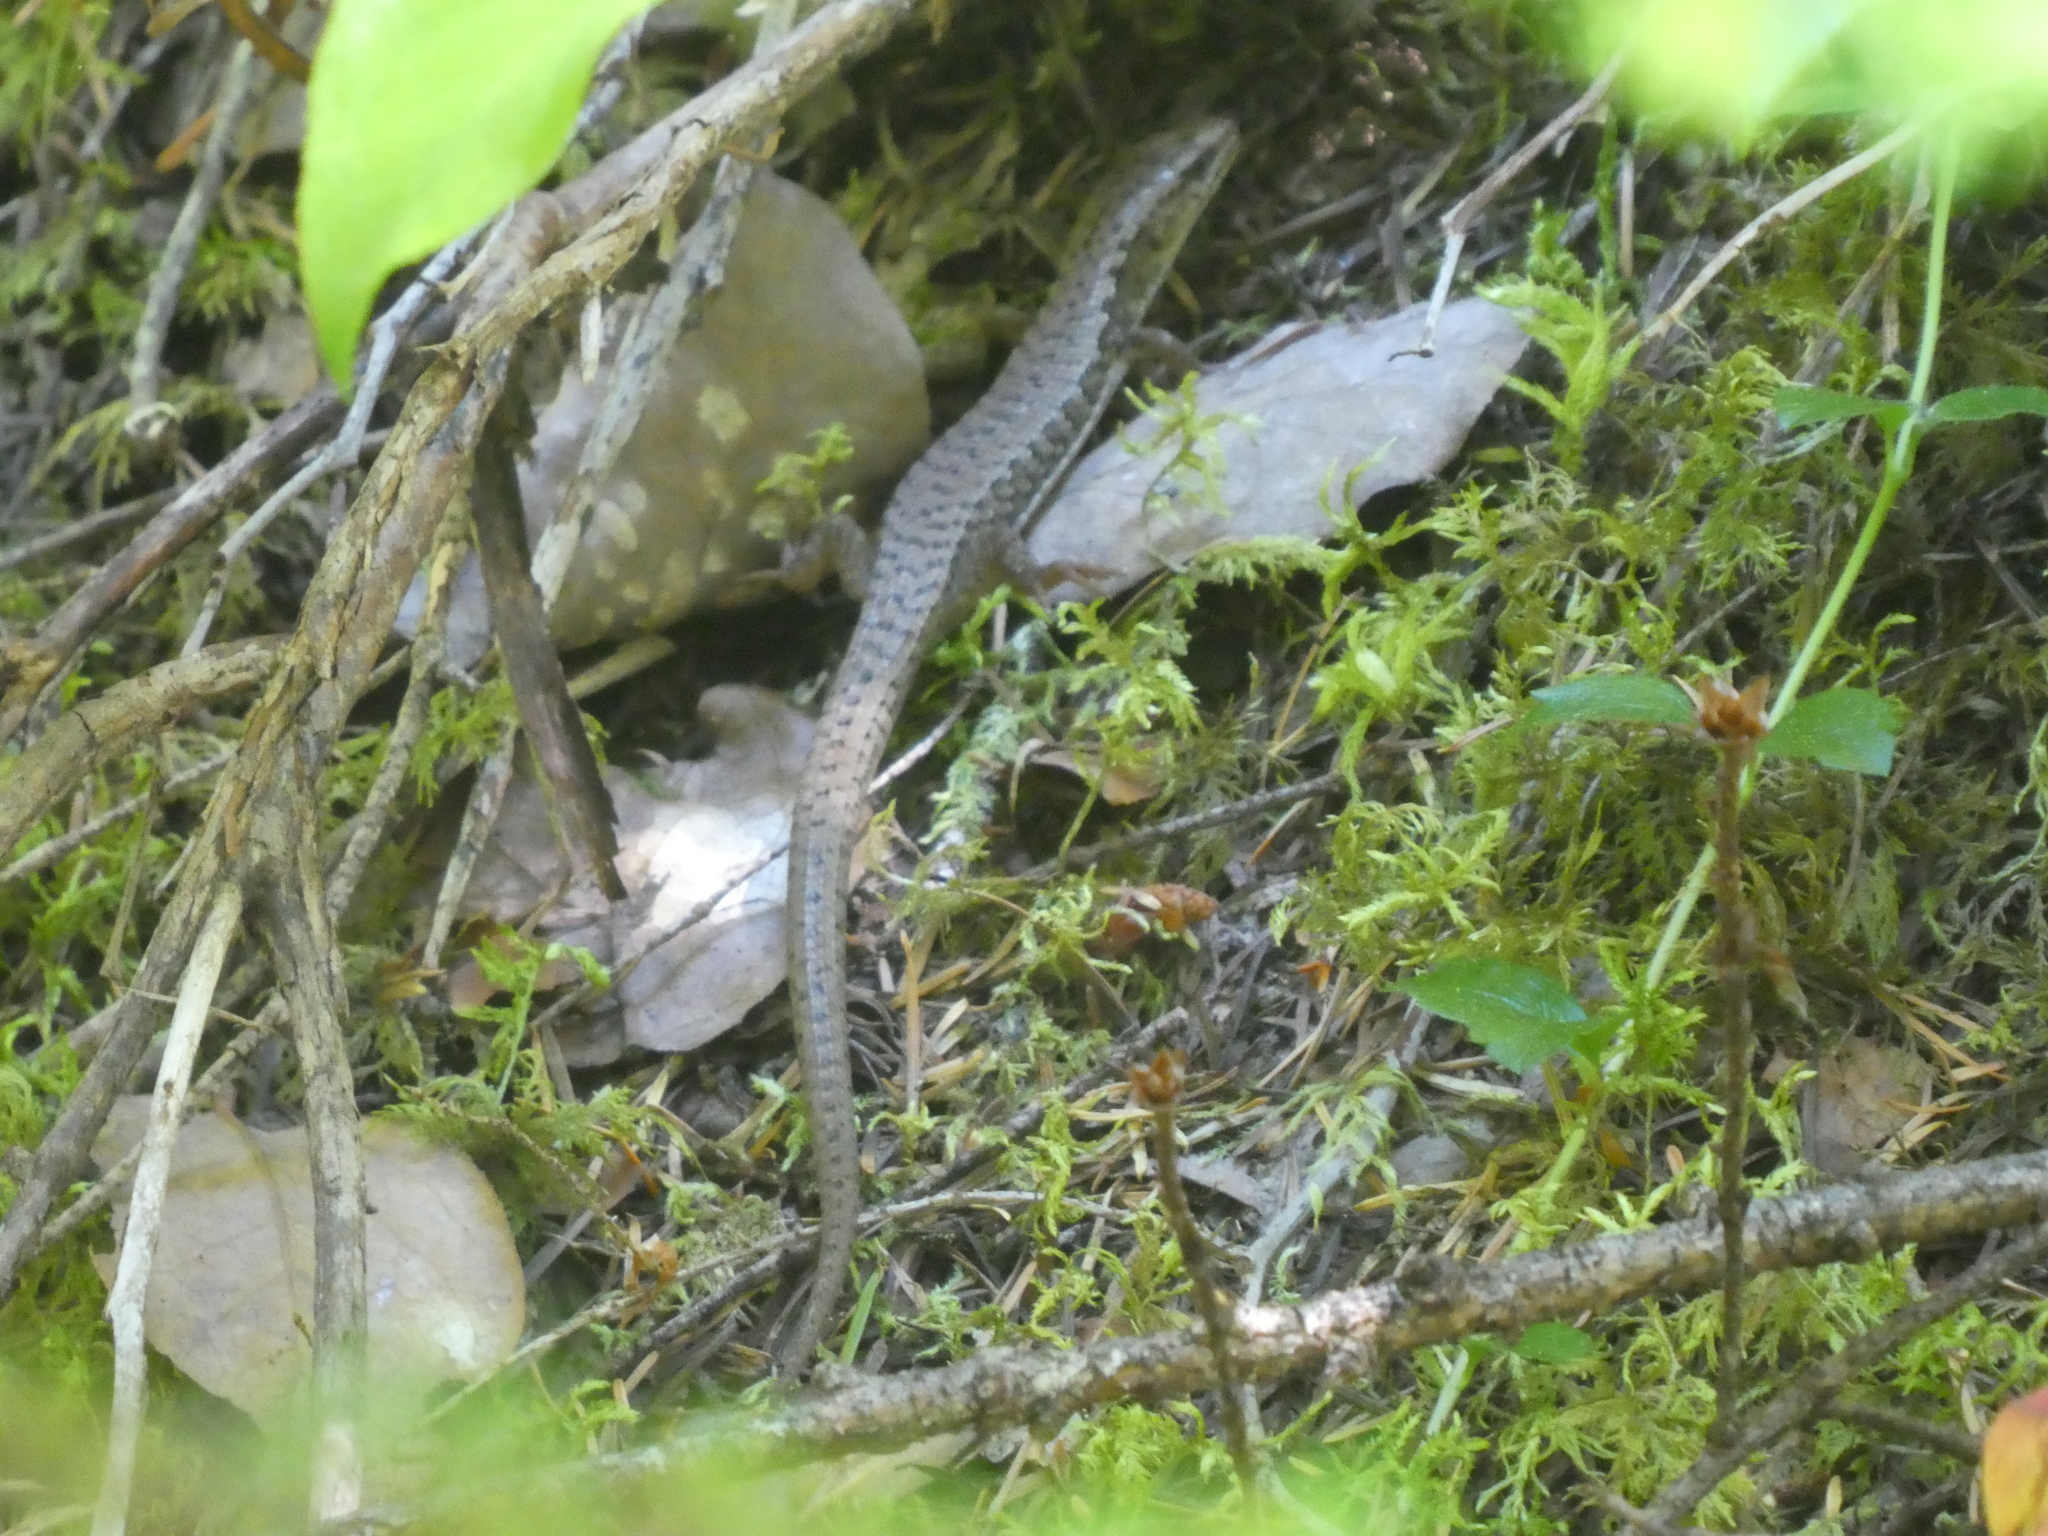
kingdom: Animalia
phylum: Chordata
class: Squamata
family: Anguidae
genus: Elgaria
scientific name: Elgaria coerulea
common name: Northern alligator lizard
